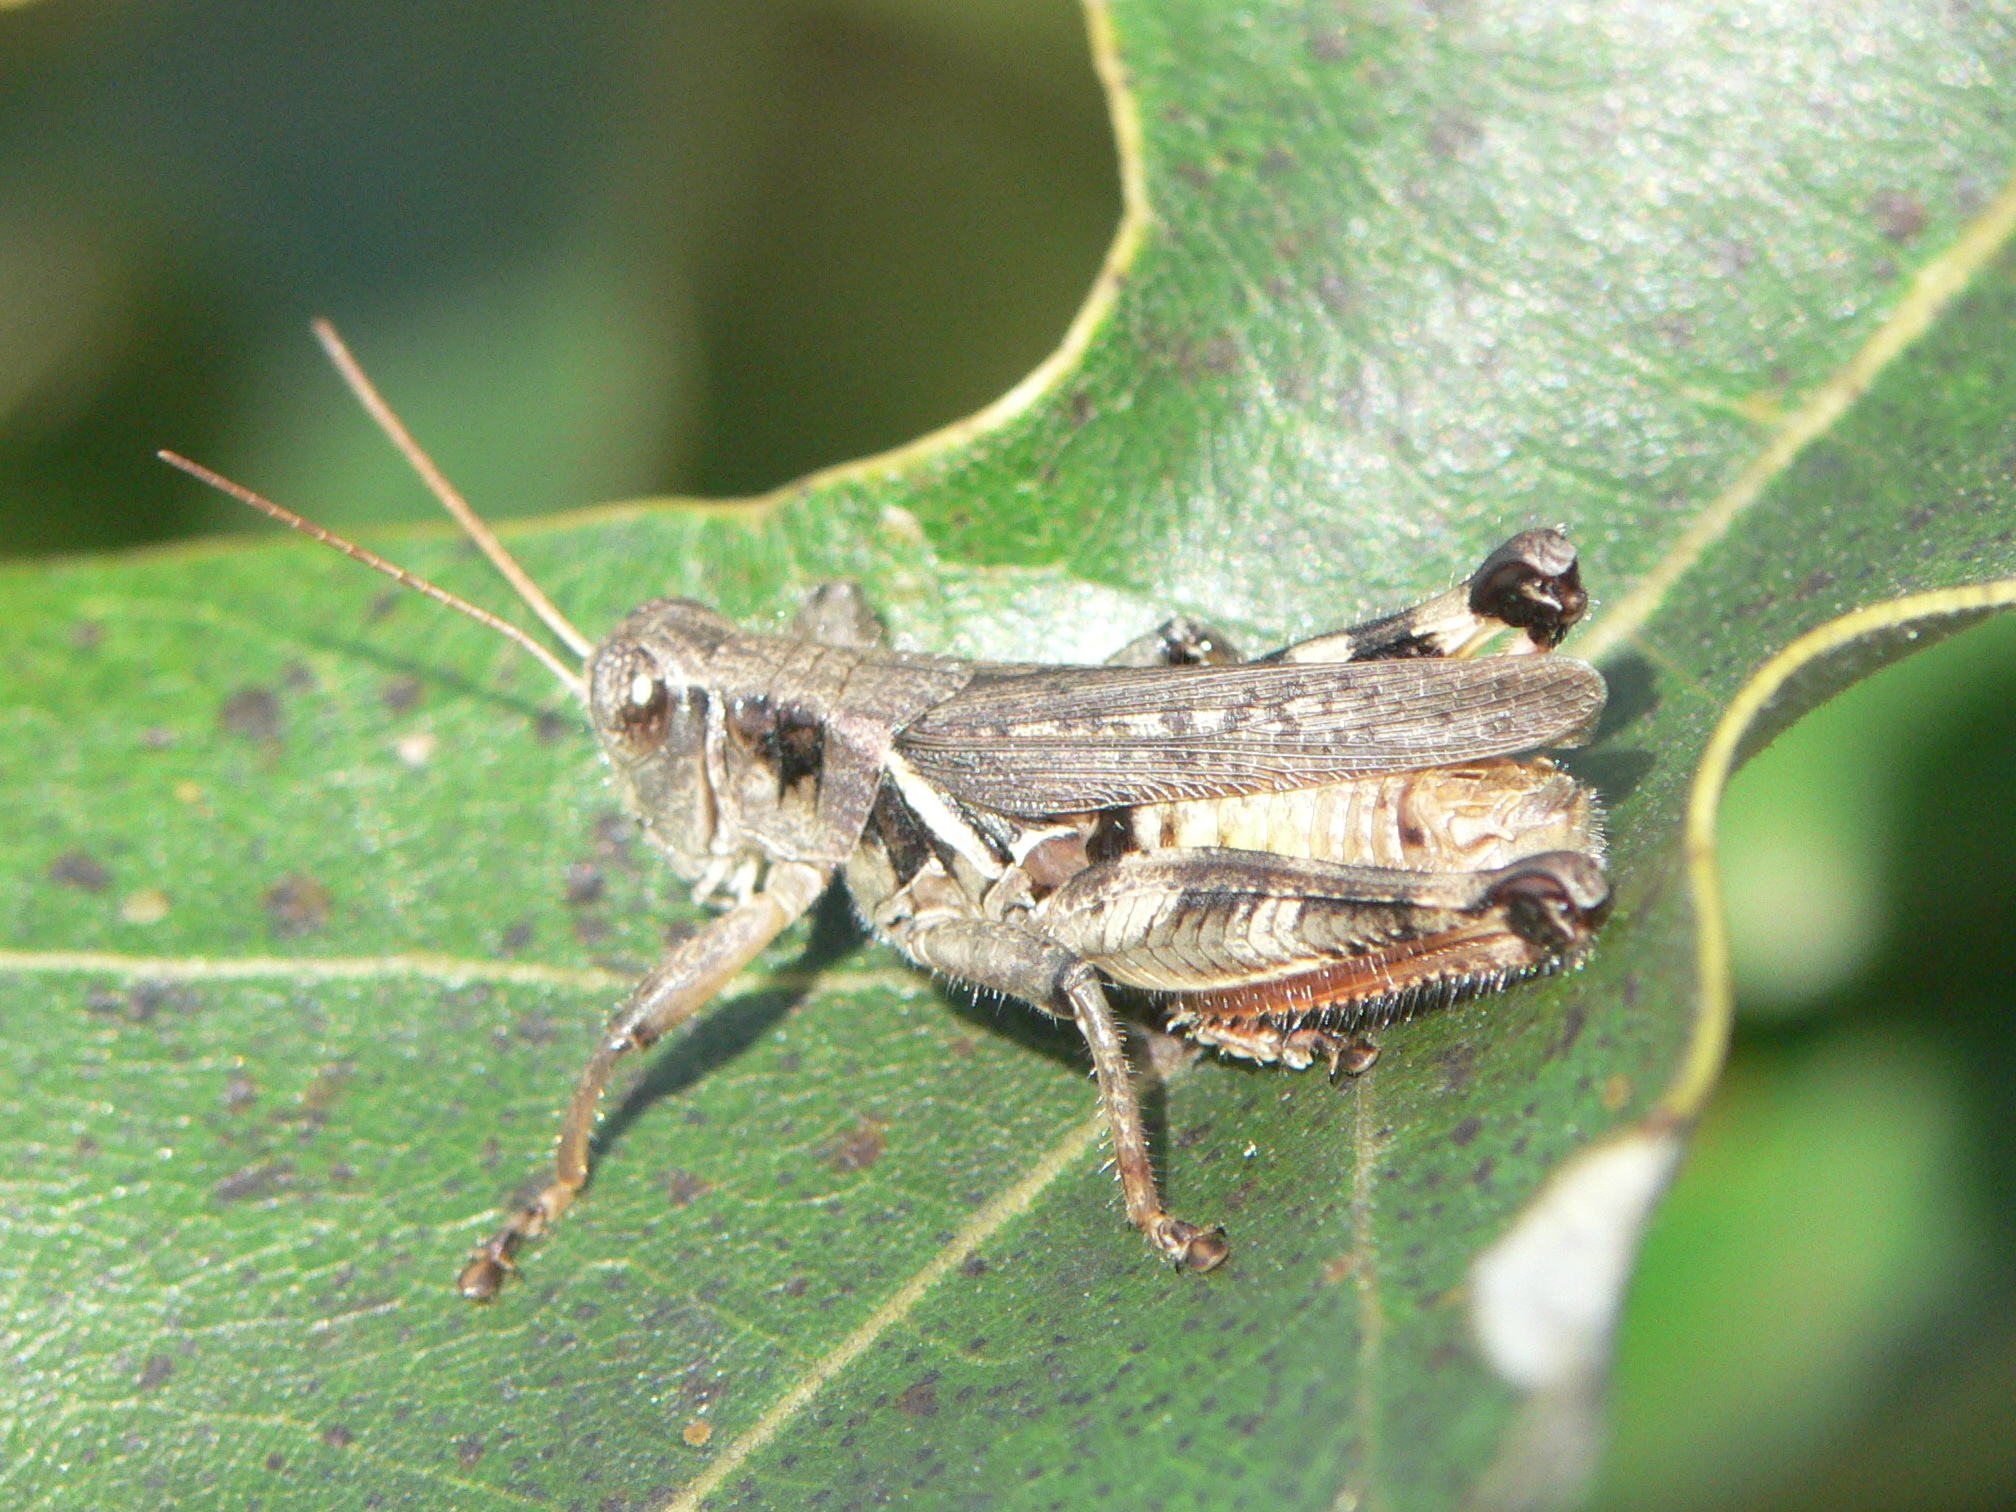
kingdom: Animalia
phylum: Arthropoda
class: Insecta
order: Orthoptera
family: Acrididae
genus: Melanoplus
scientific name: Melanoplus keeleri
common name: Keeler grasshopper
